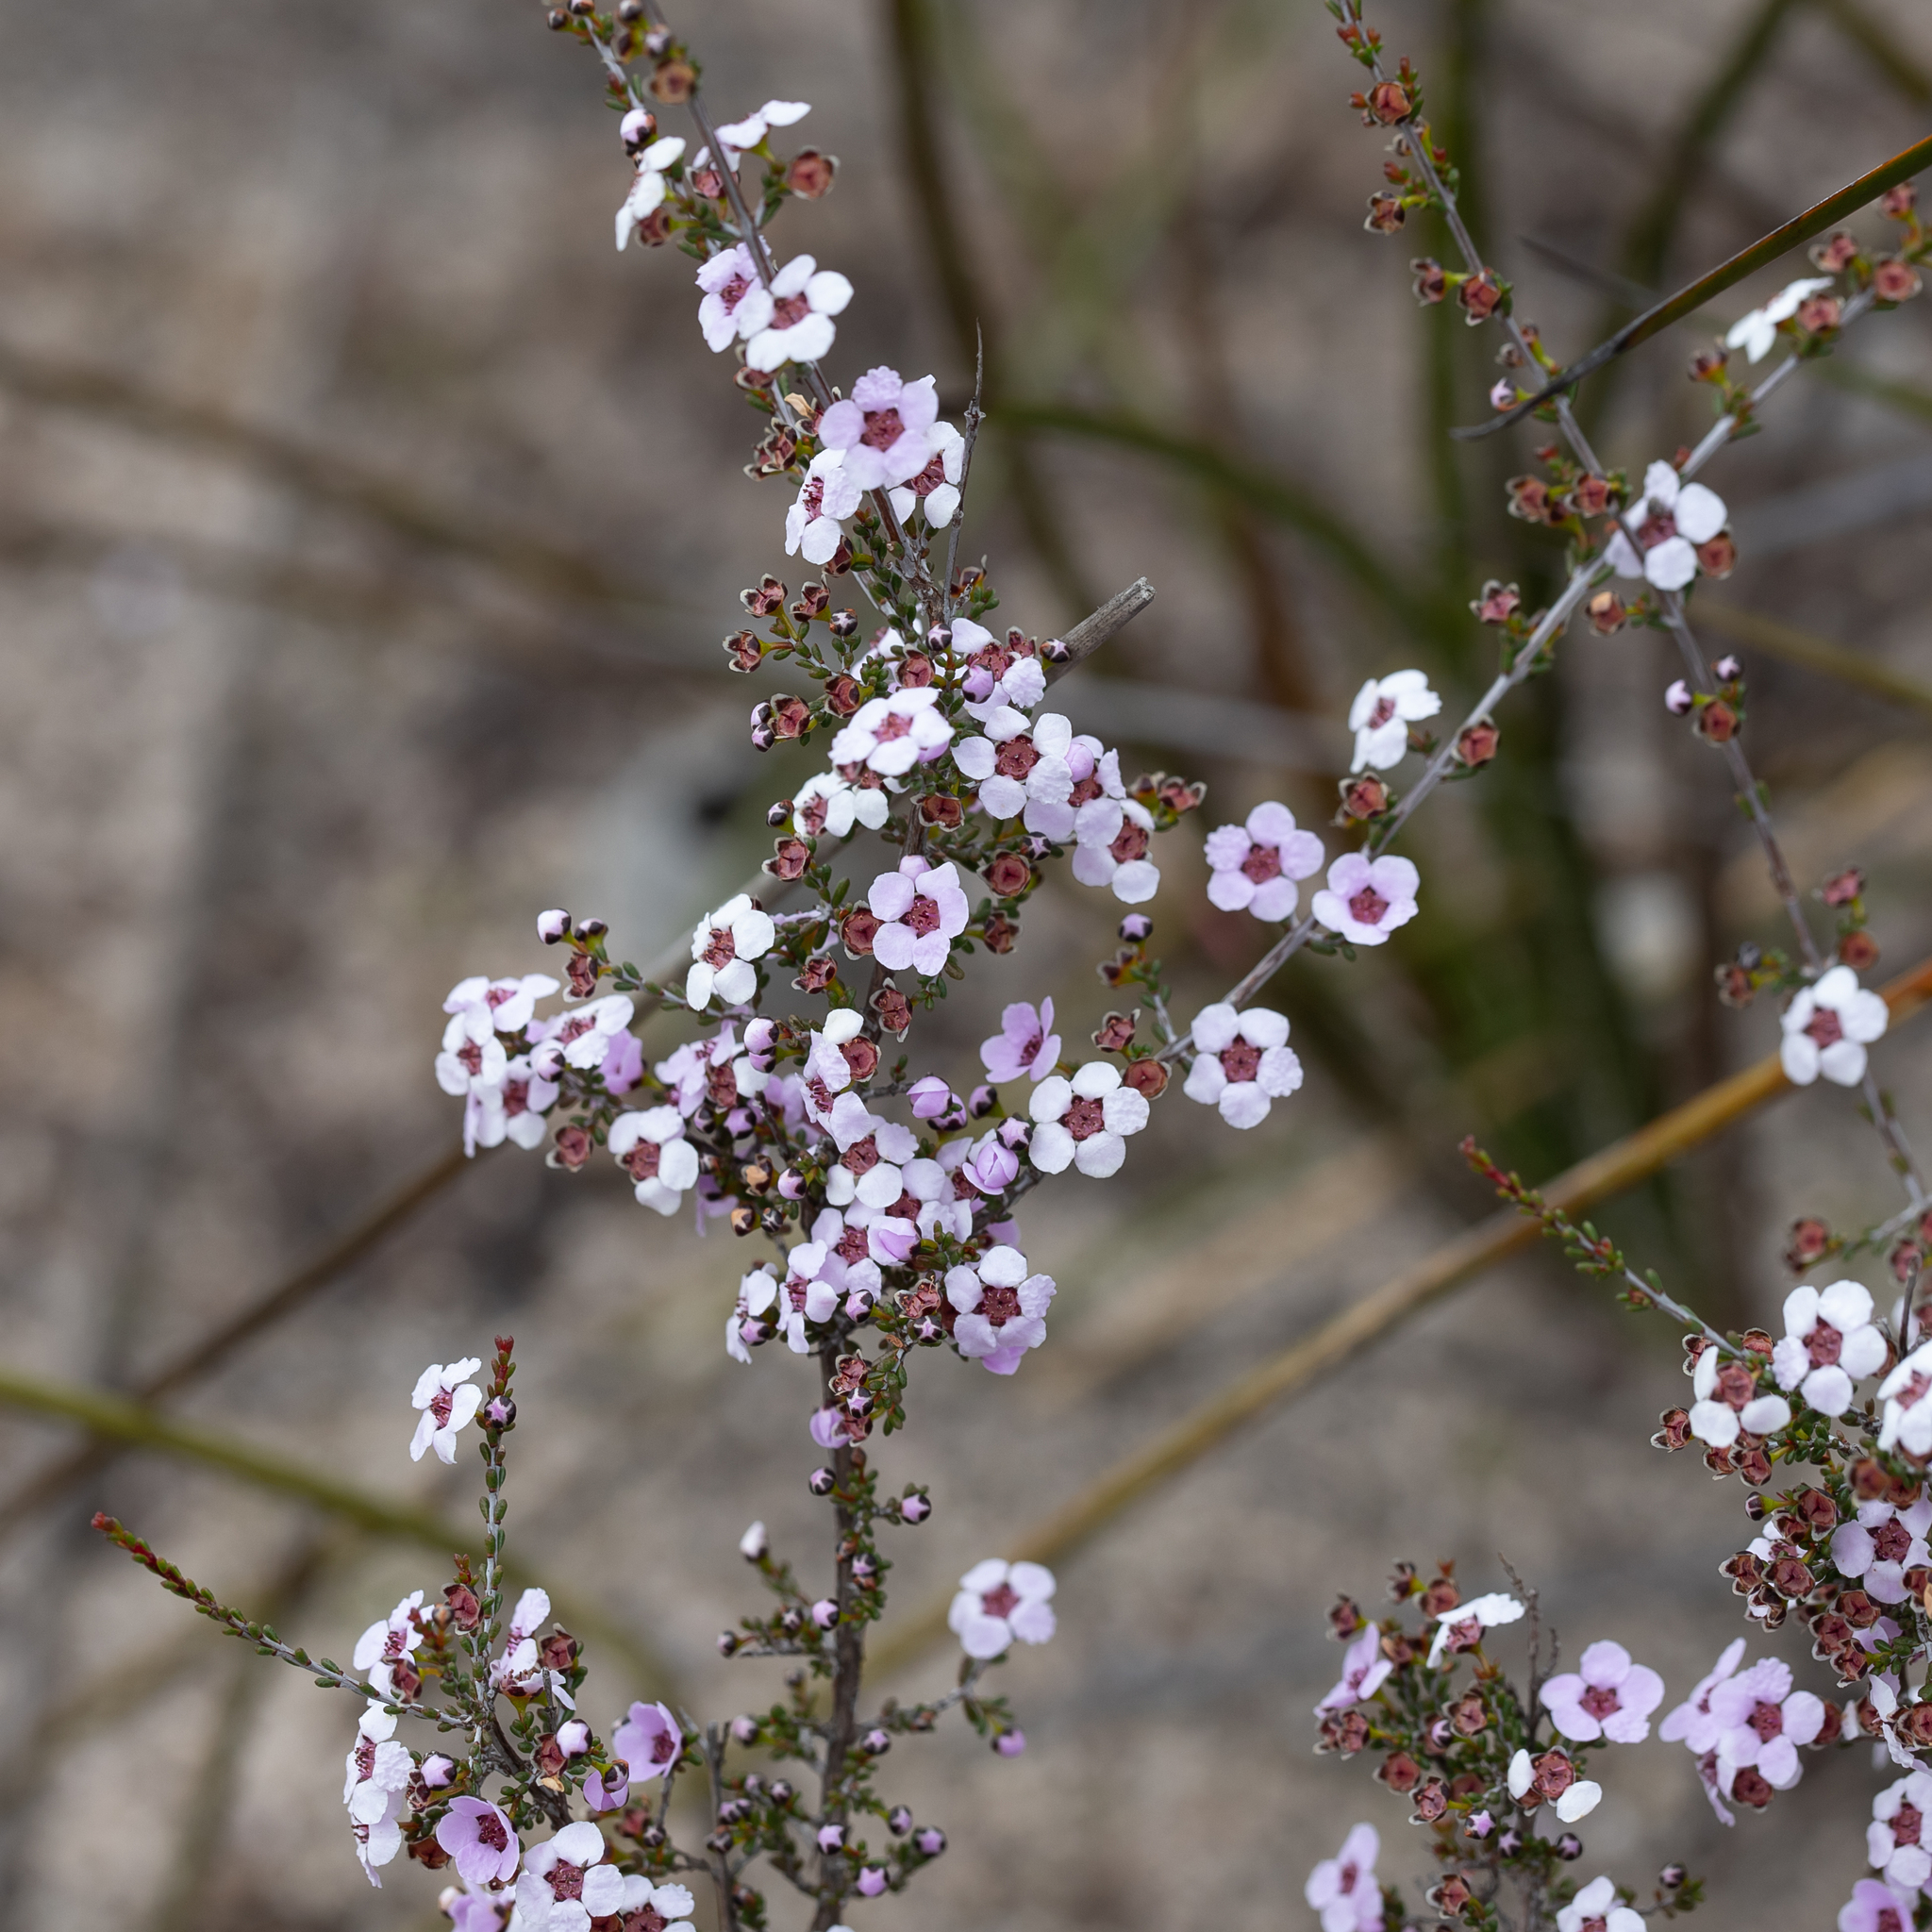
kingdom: Plantae
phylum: Tracheophyta
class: Magnoliopsida
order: Myrtales
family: Myrtaceae
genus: Rinzia
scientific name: Rinzia orientalis
